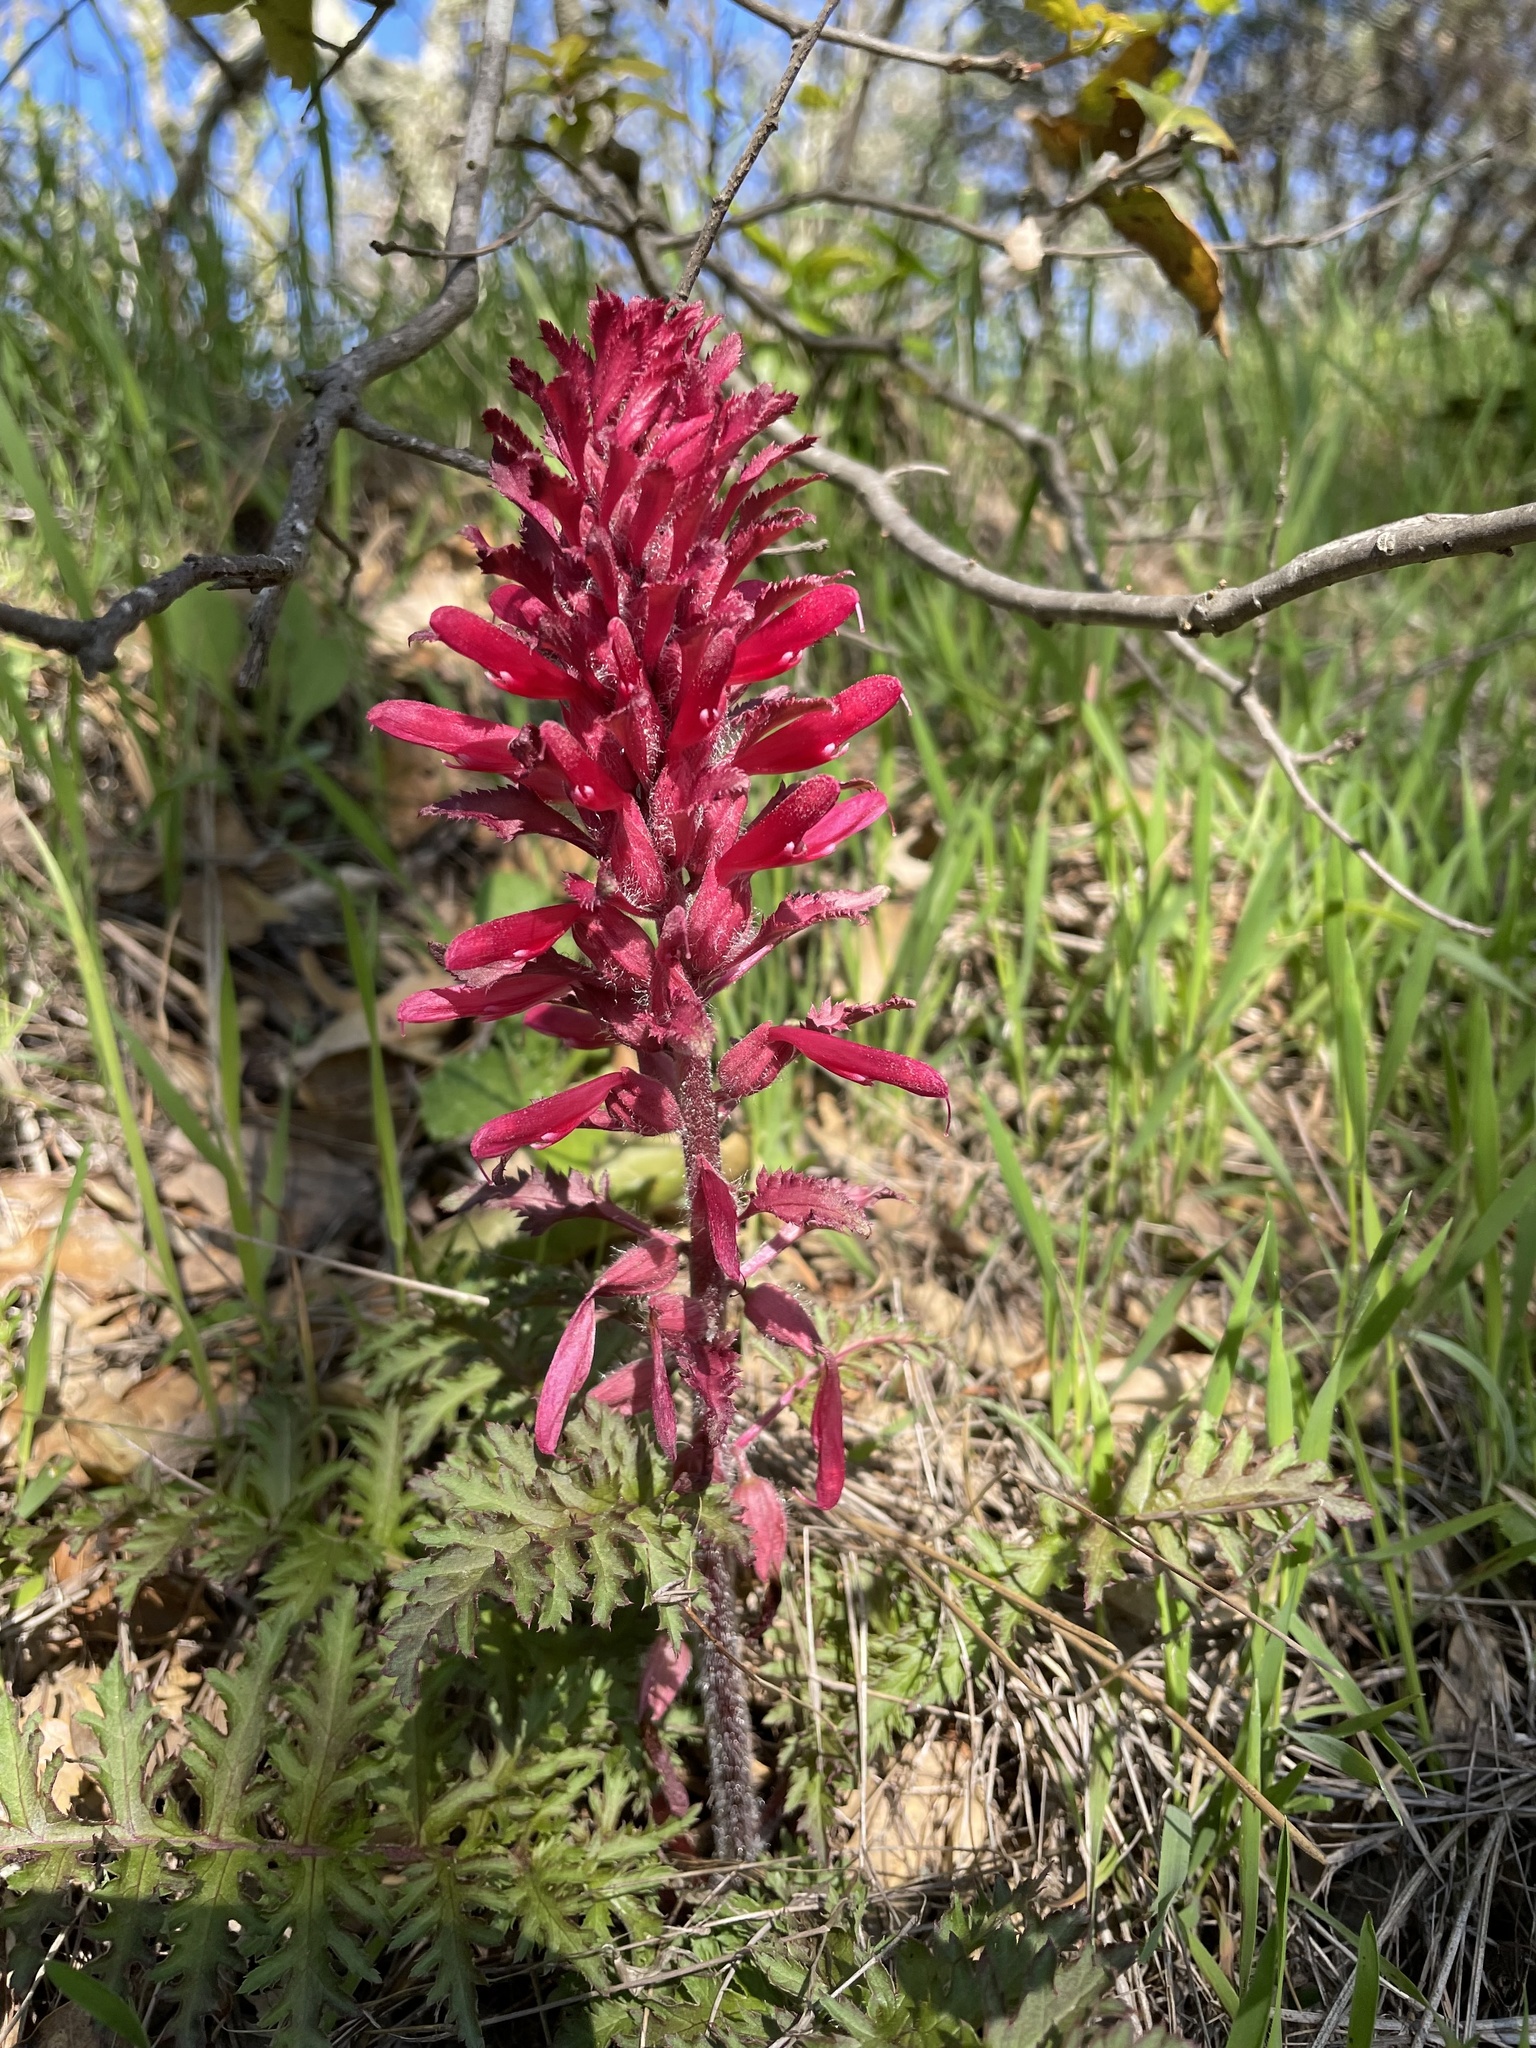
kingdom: Plantae
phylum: Tracheophyta
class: Magnoliopsida
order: Lamiales
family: Orobanchaceae
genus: Pedicularis
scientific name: Pedicularis densiflora
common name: Indian warrior
